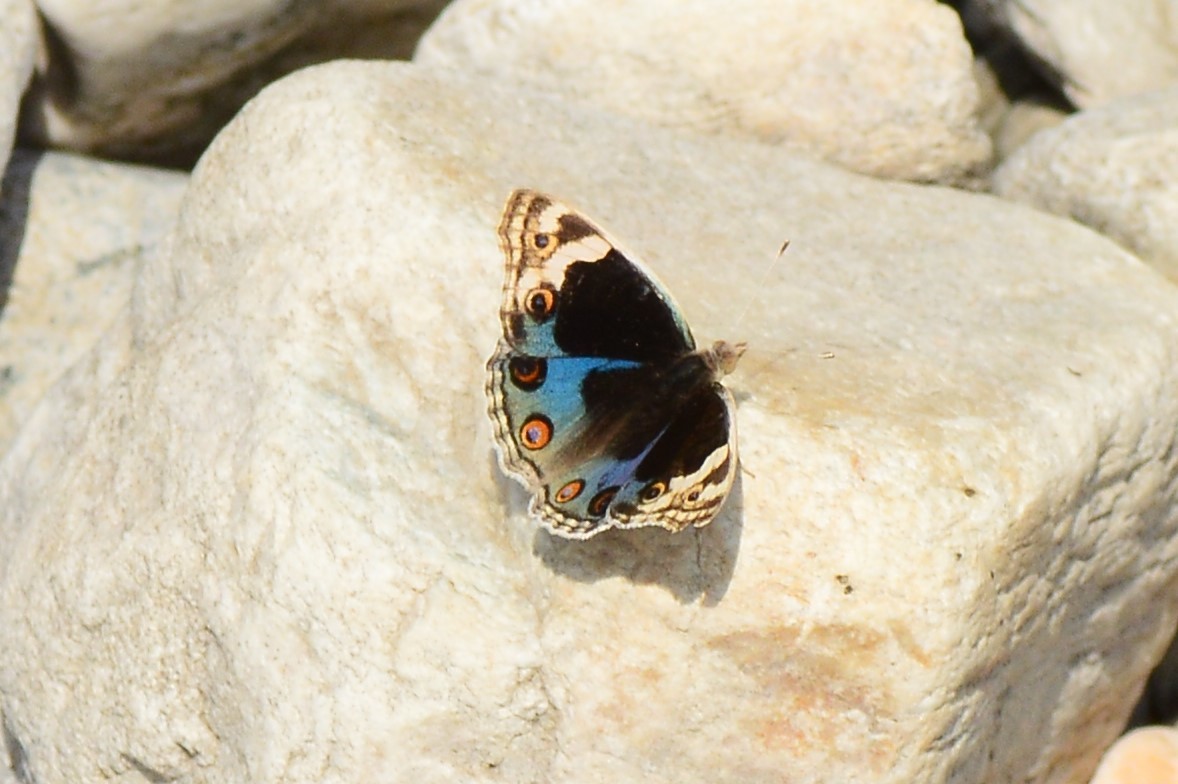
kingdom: Animalia
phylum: Arthropoda
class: Insecta
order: Lepidoptera
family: Nymphalidae
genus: Junonia
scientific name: Junonia orithya
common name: Blue pansy
